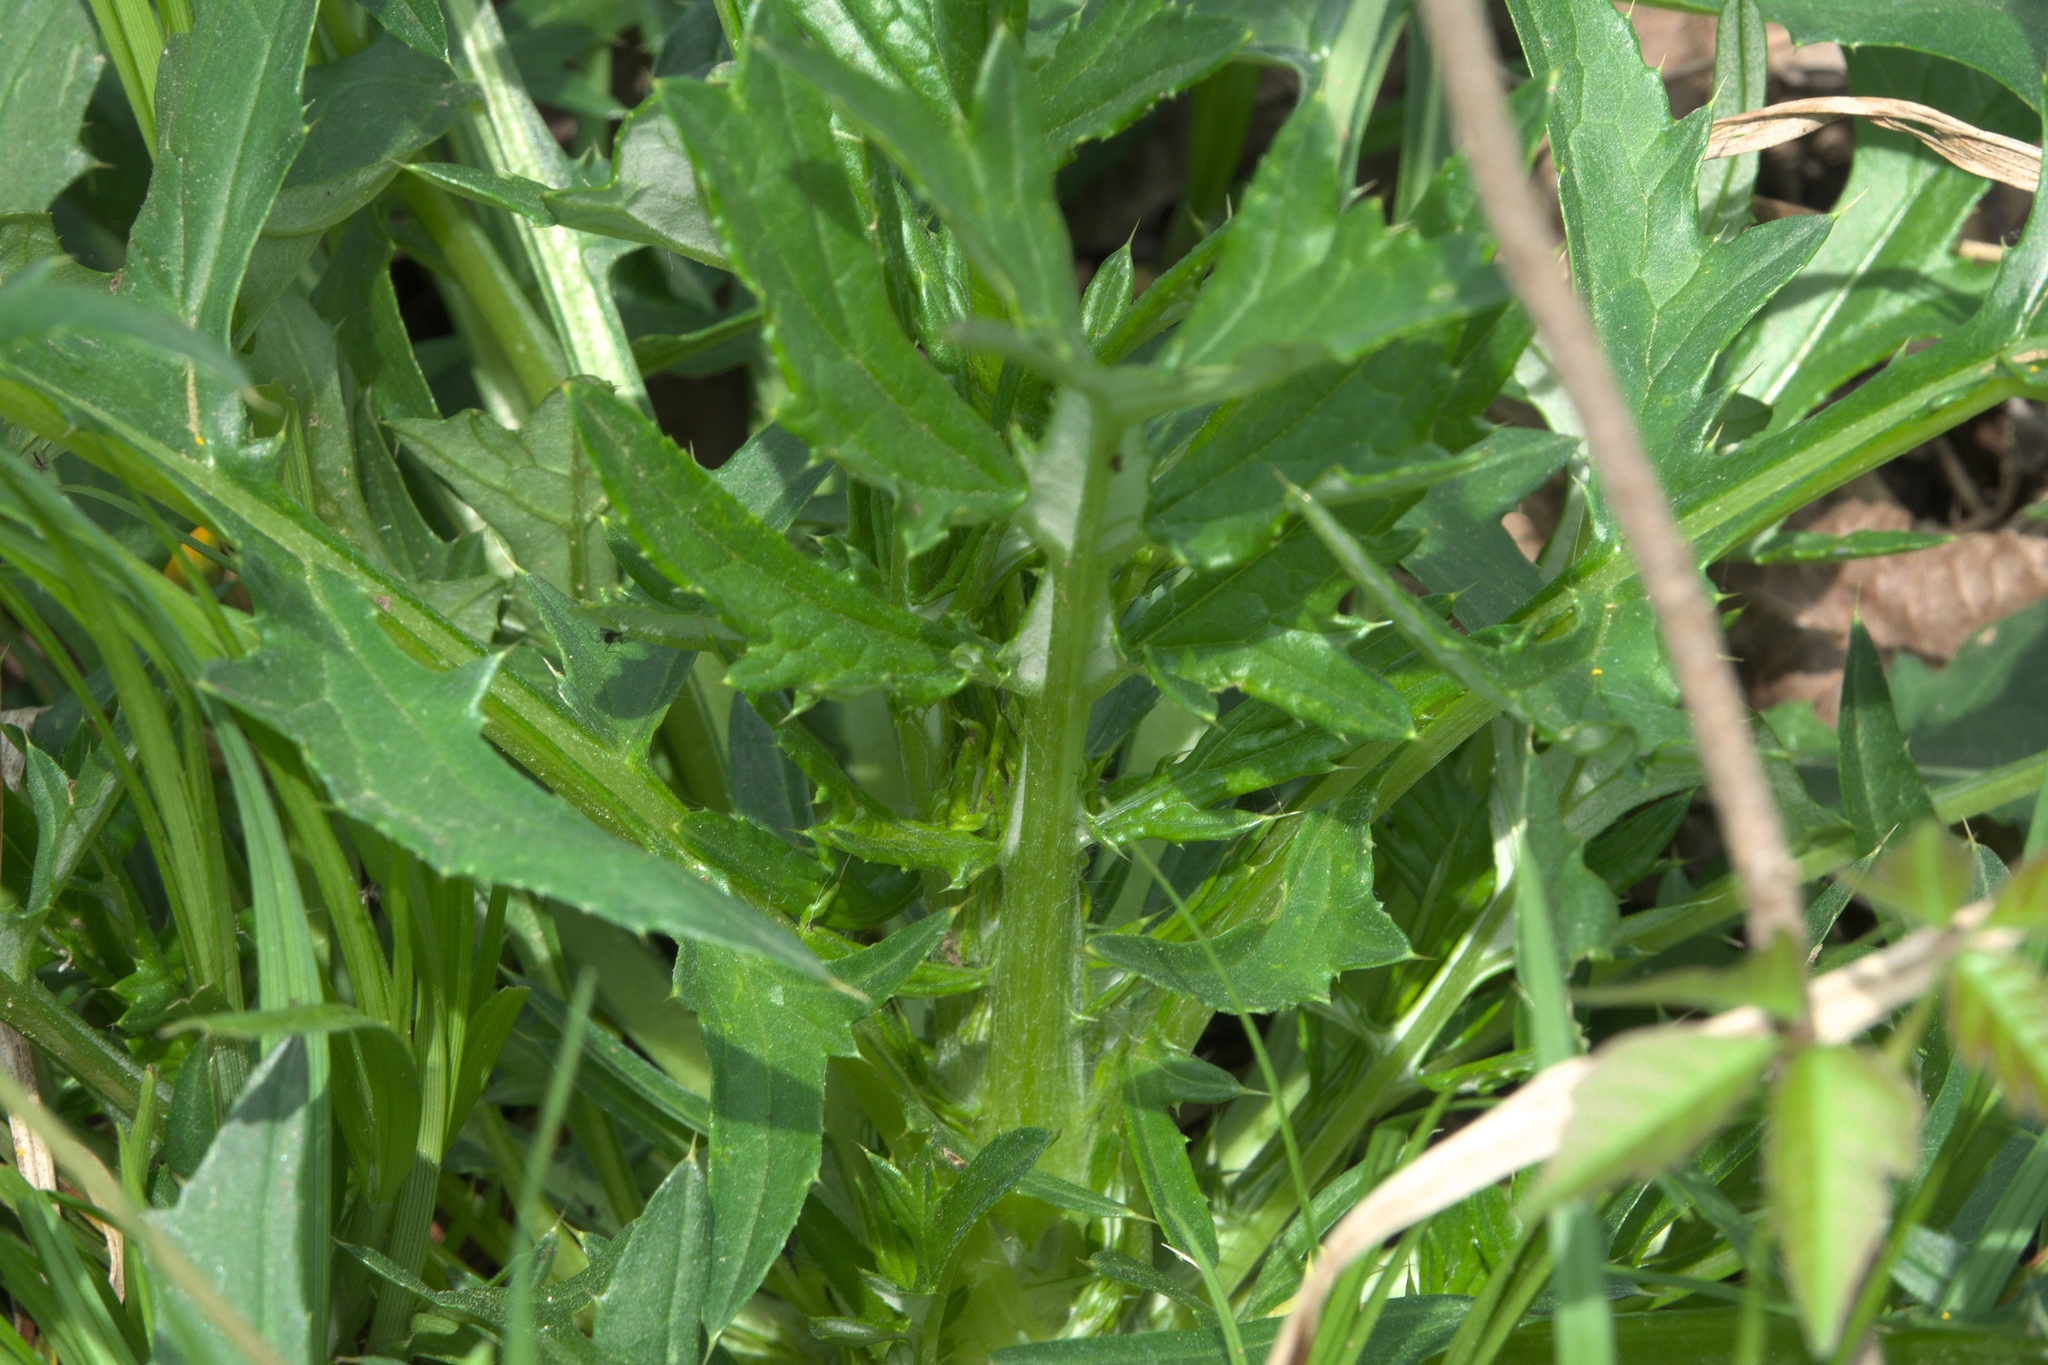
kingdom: Plantae
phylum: Tracheophyta
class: Magnoliopsida
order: Asterales
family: Asteraceae
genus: Cirsium
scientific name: Cirsium carolinianum
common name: Carolina thistle
